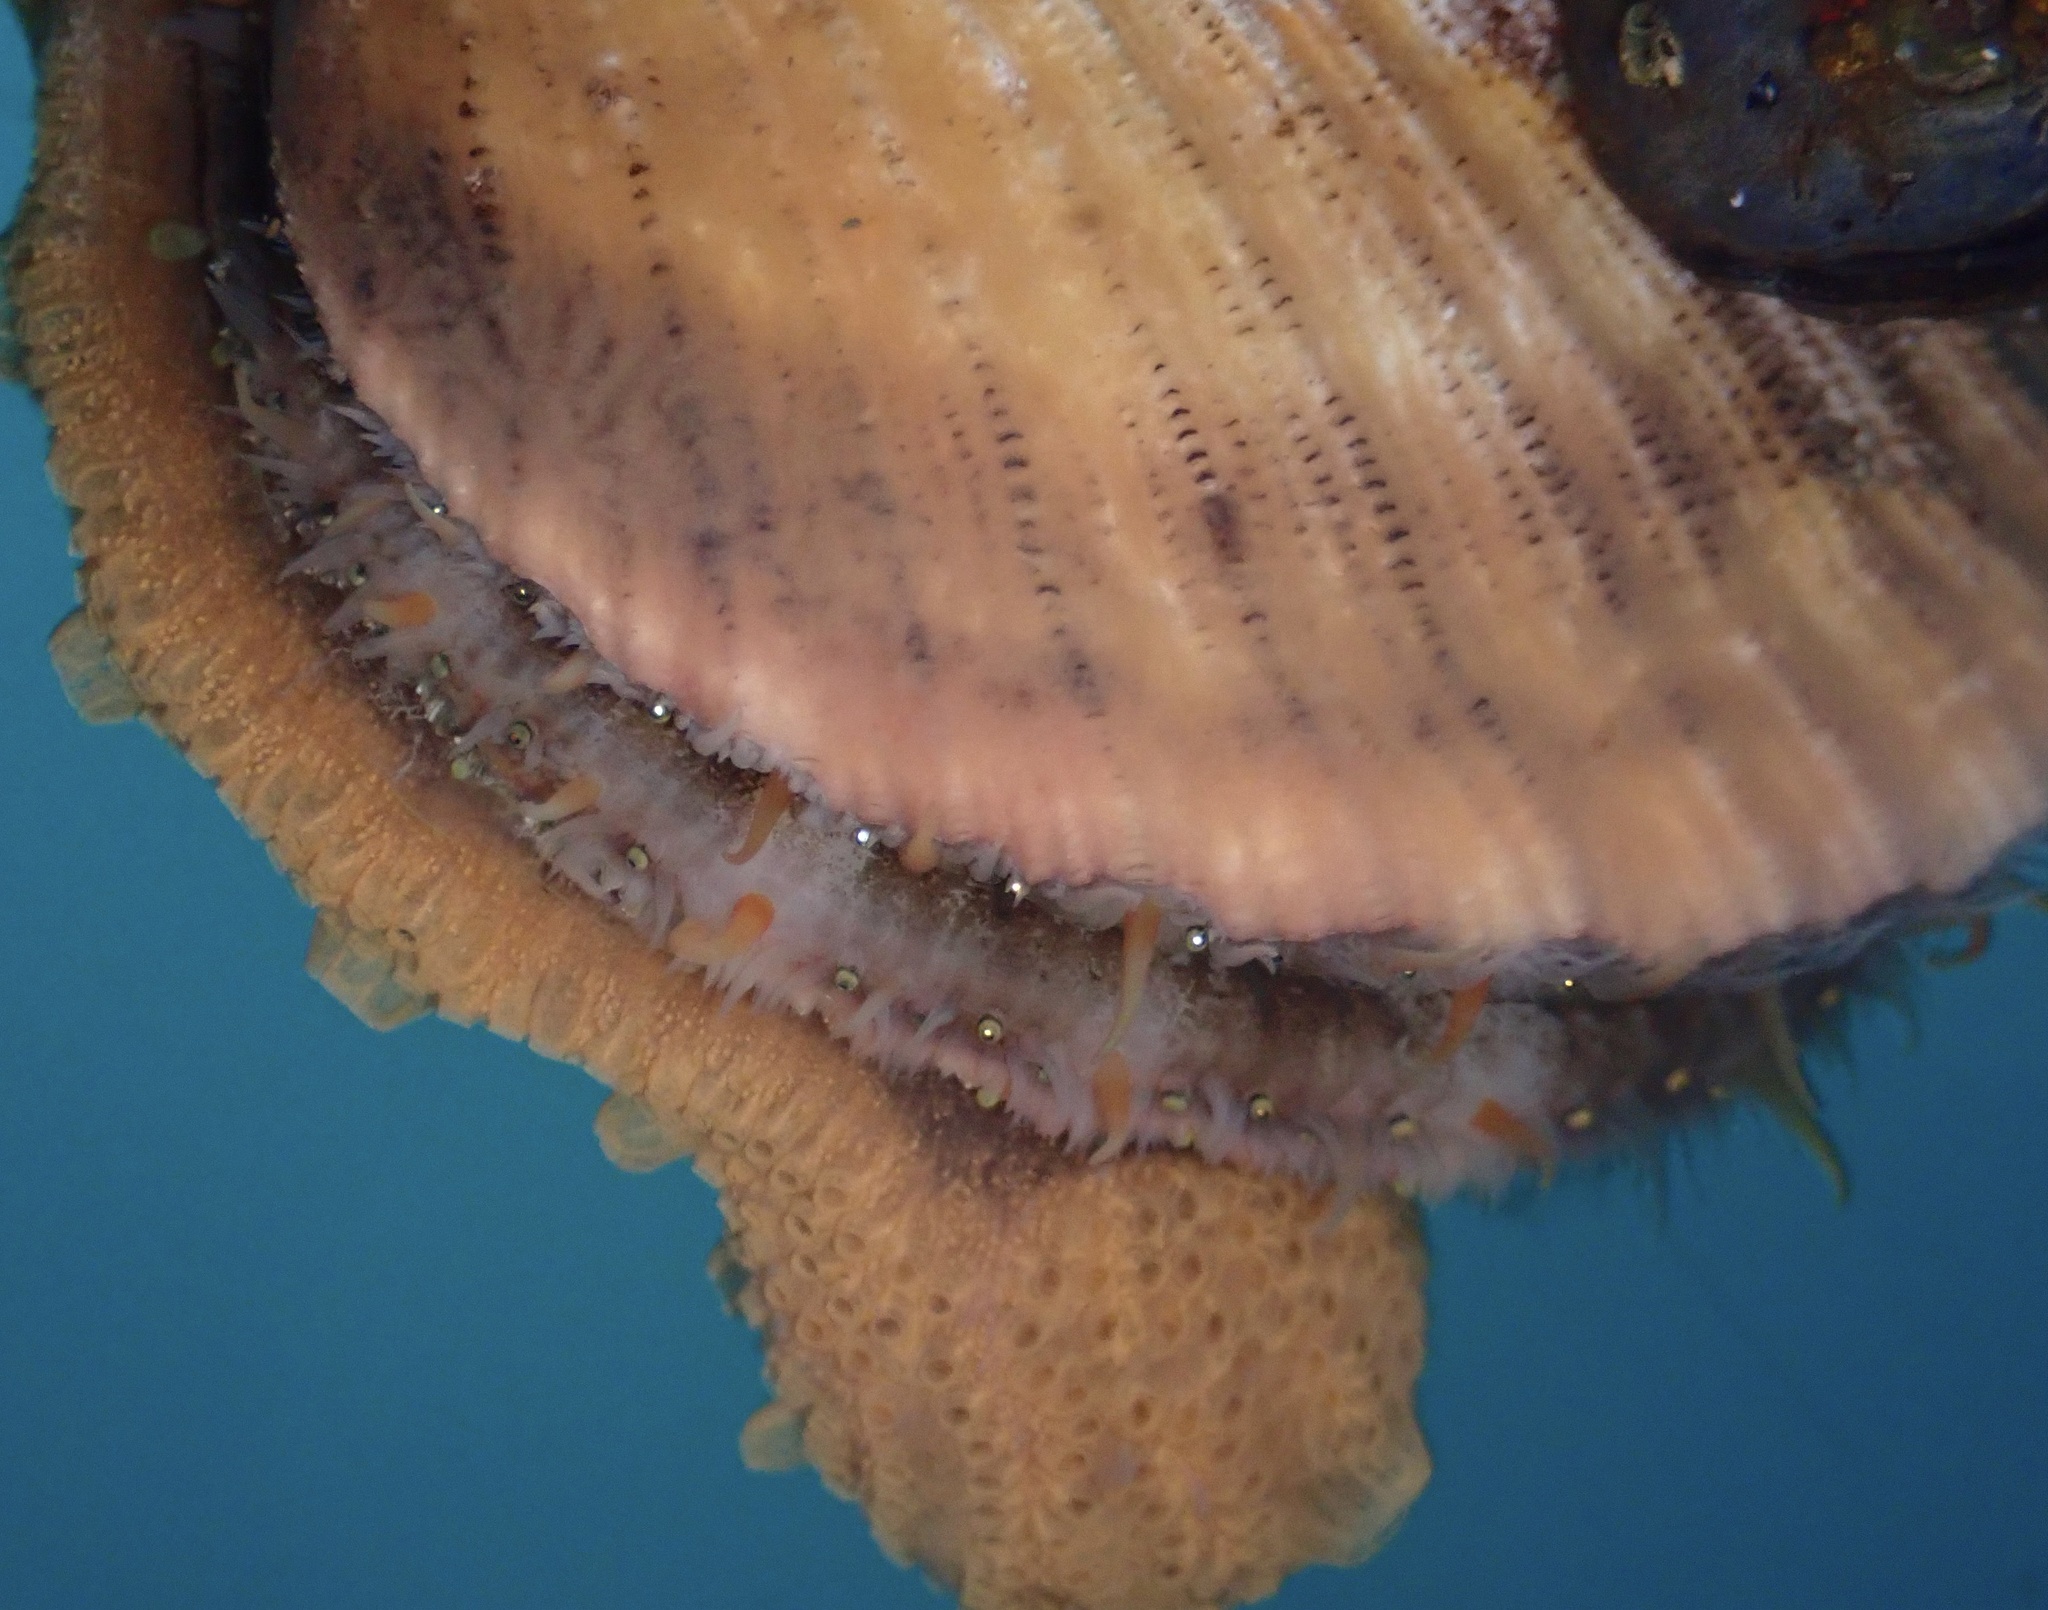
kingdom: Animalia
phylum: Mollusca
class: Bivalvia
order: Pectinida
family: Pectinidae
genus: Chlamys
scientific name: Chlamys hastata
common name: Spear scallop
